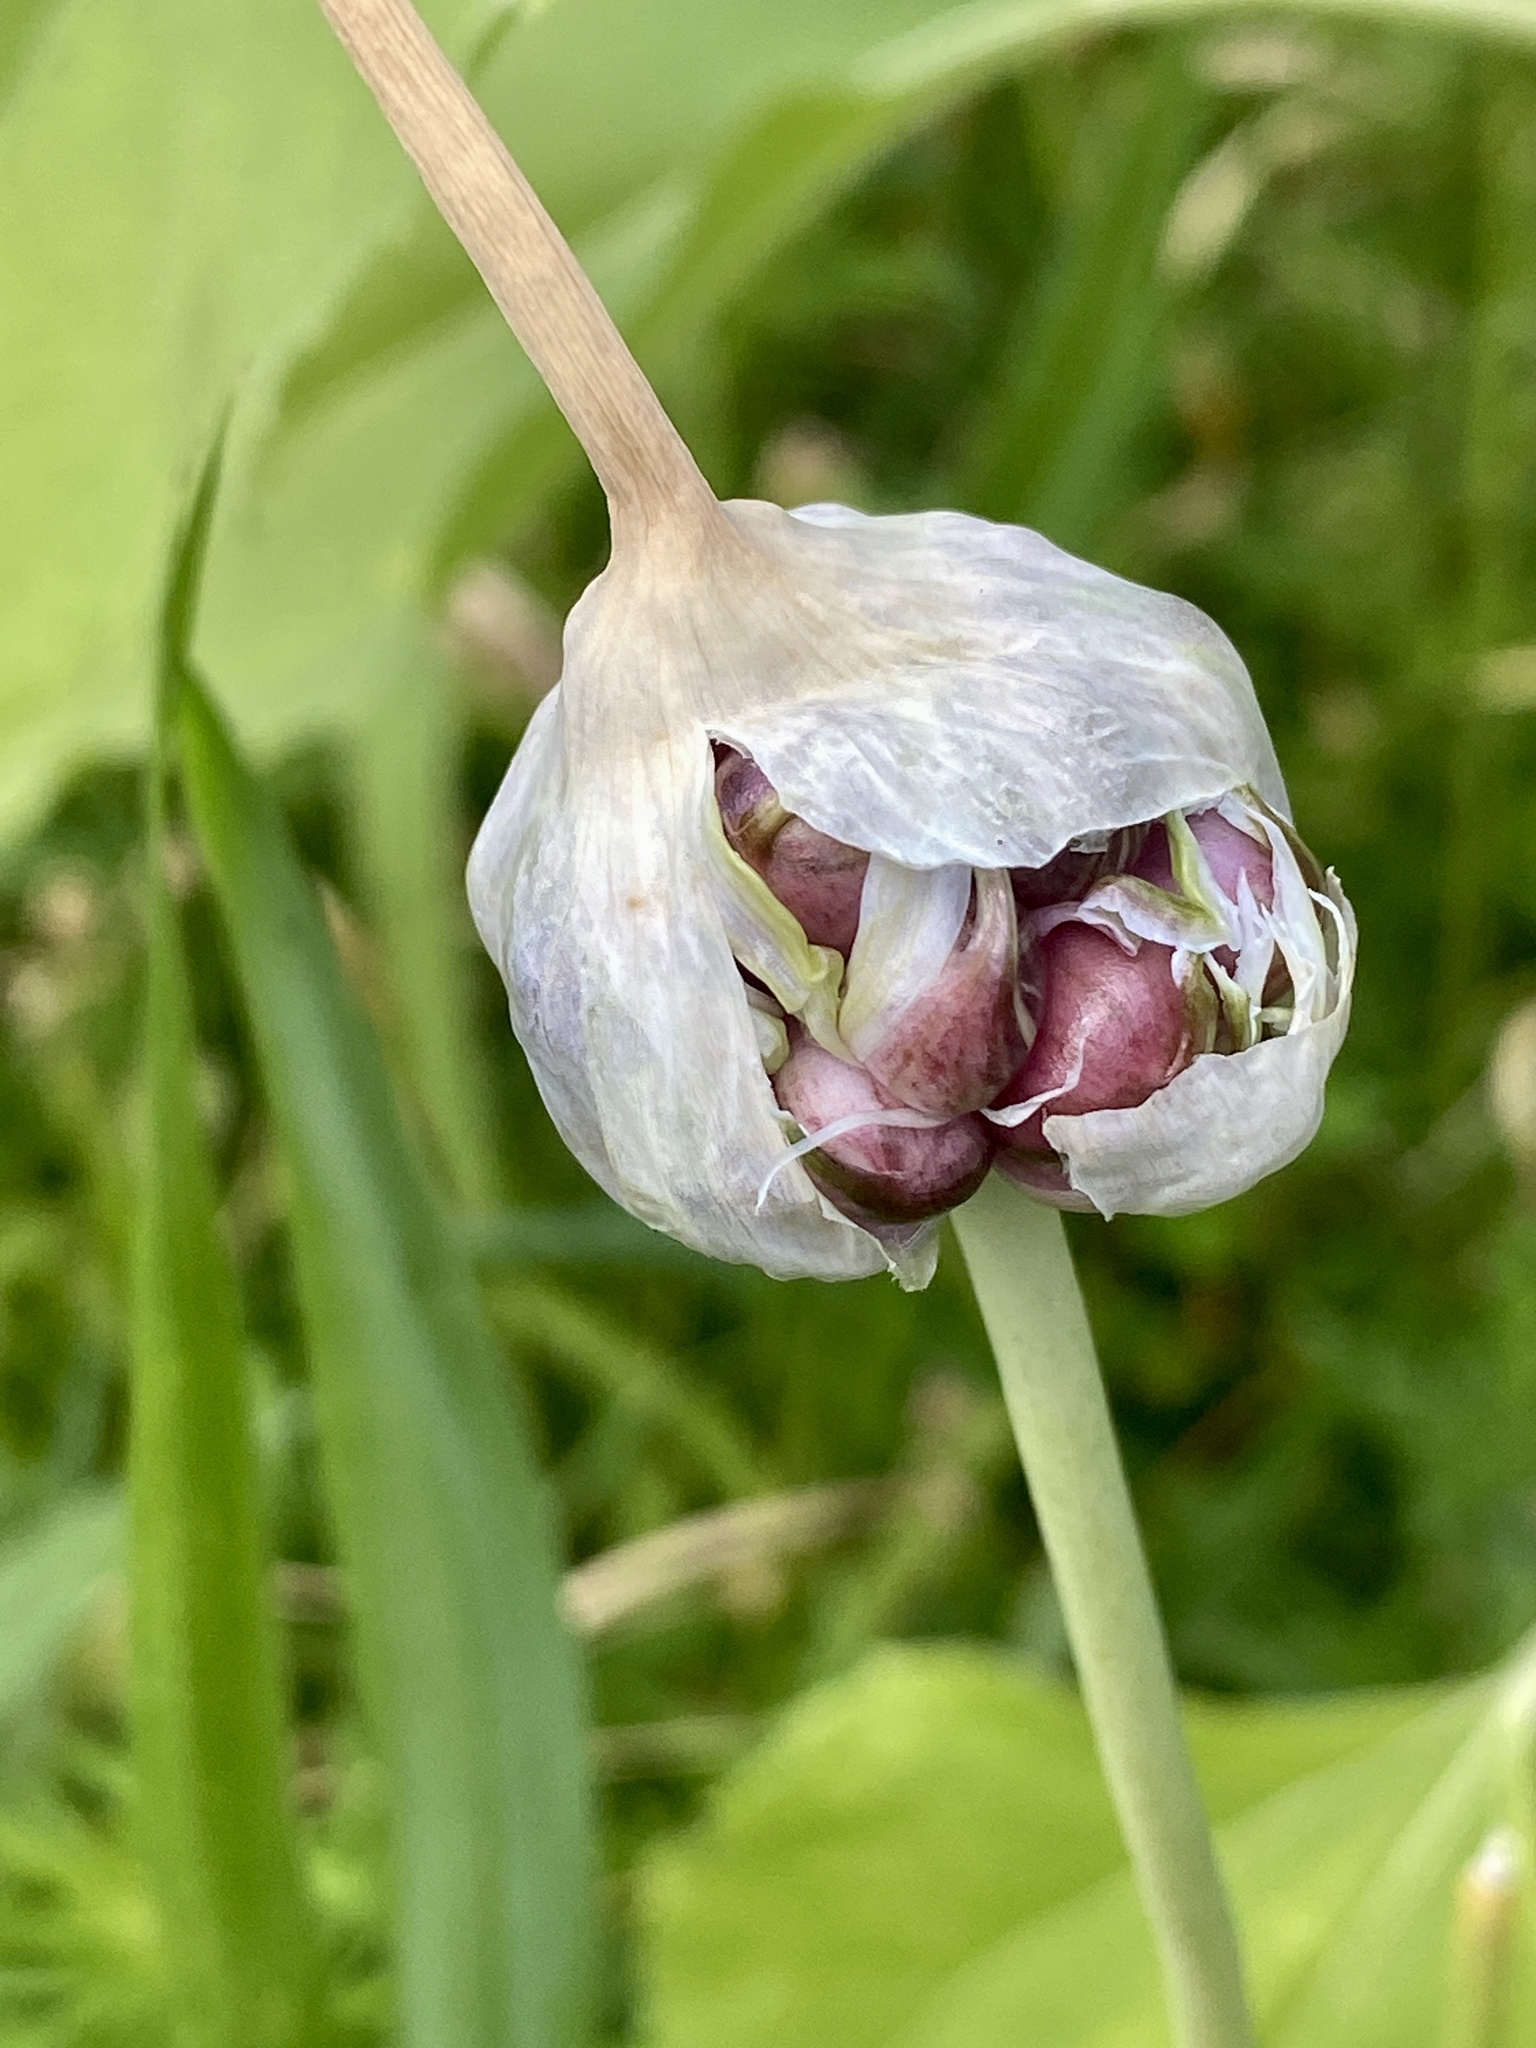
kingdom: Plantae
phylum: Tracheophyta
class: Liliopsida
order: Asparagales
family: Amaryllidaceae
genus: Allium
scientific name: Allium vineale
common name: Crow garlic
